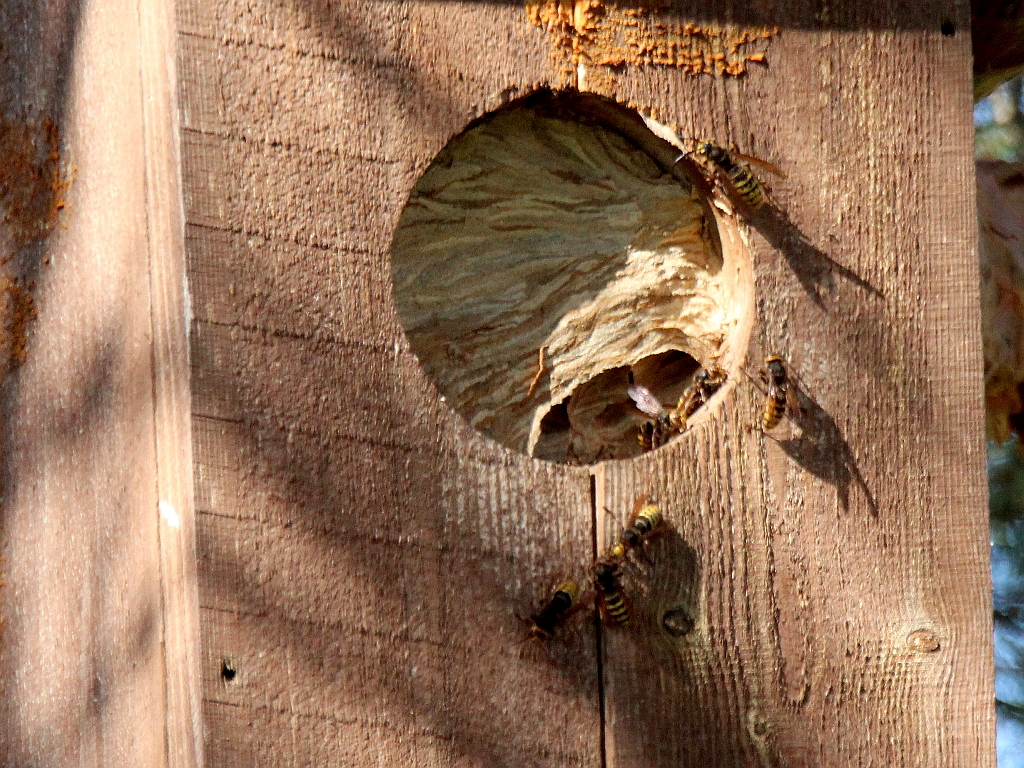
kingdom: Animalia
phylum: Arthropoda
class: Insecta
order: Hymenoptera
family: Vespidae
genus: Vespa
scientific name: Vespa crabro
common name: Hornet
